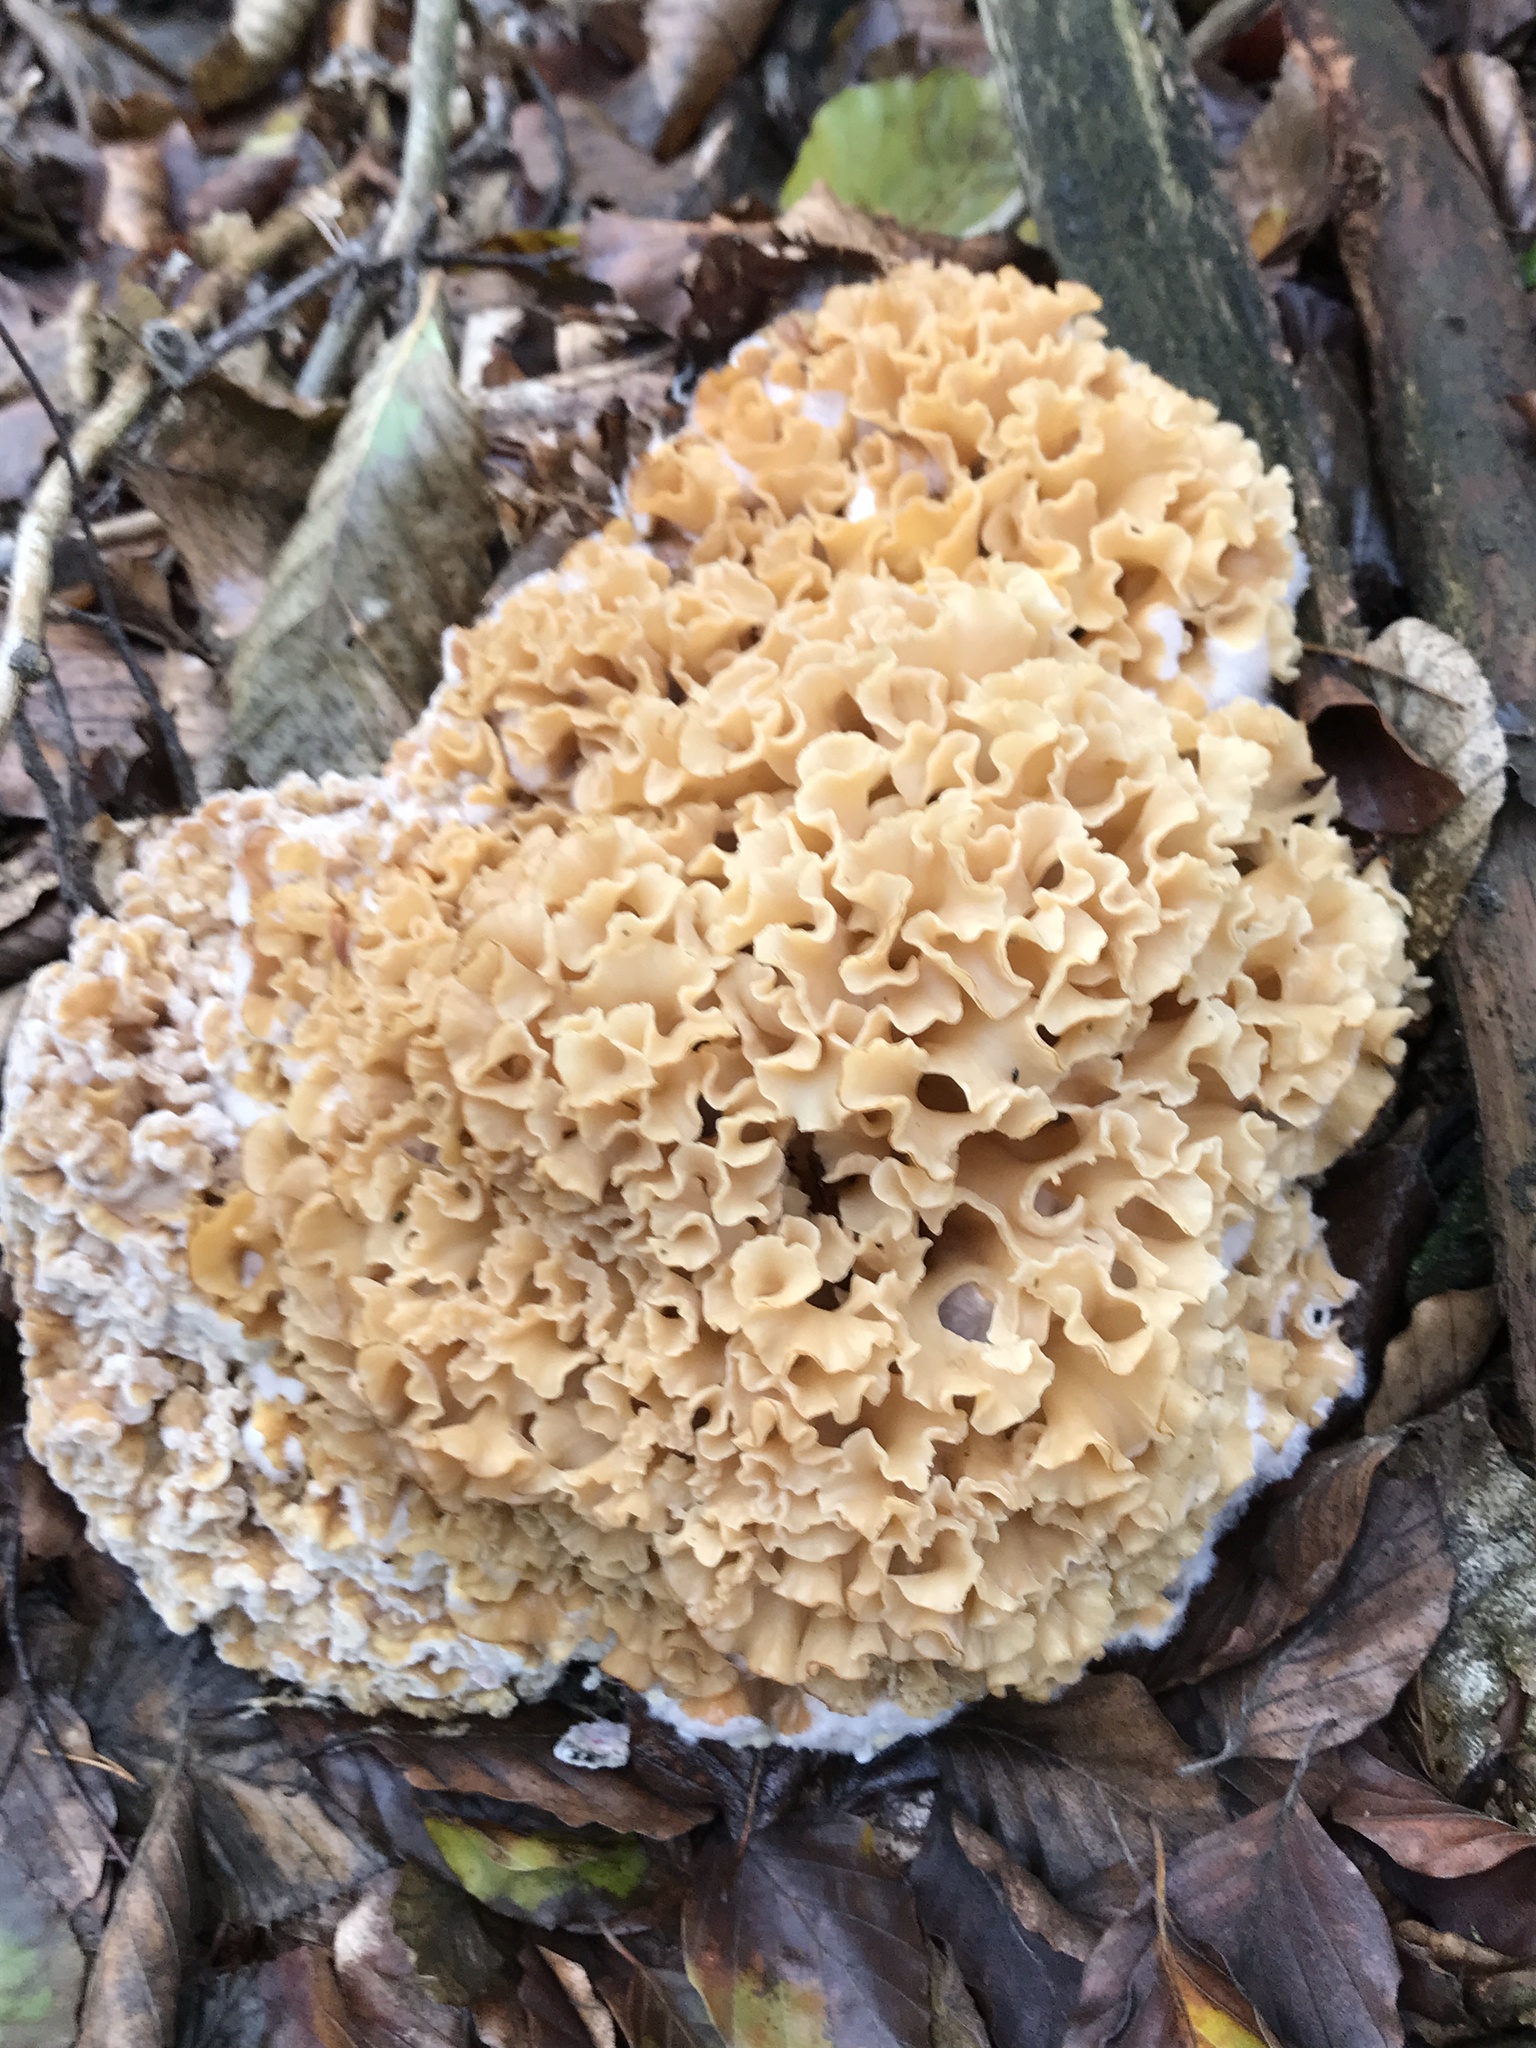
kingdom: Fungi
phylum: Basidiomycota
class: Agaricomycetes
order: Polyporales
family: Sparassidaceae
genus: Sparassis
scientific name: Sparassis crispa
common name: Brain fungus
